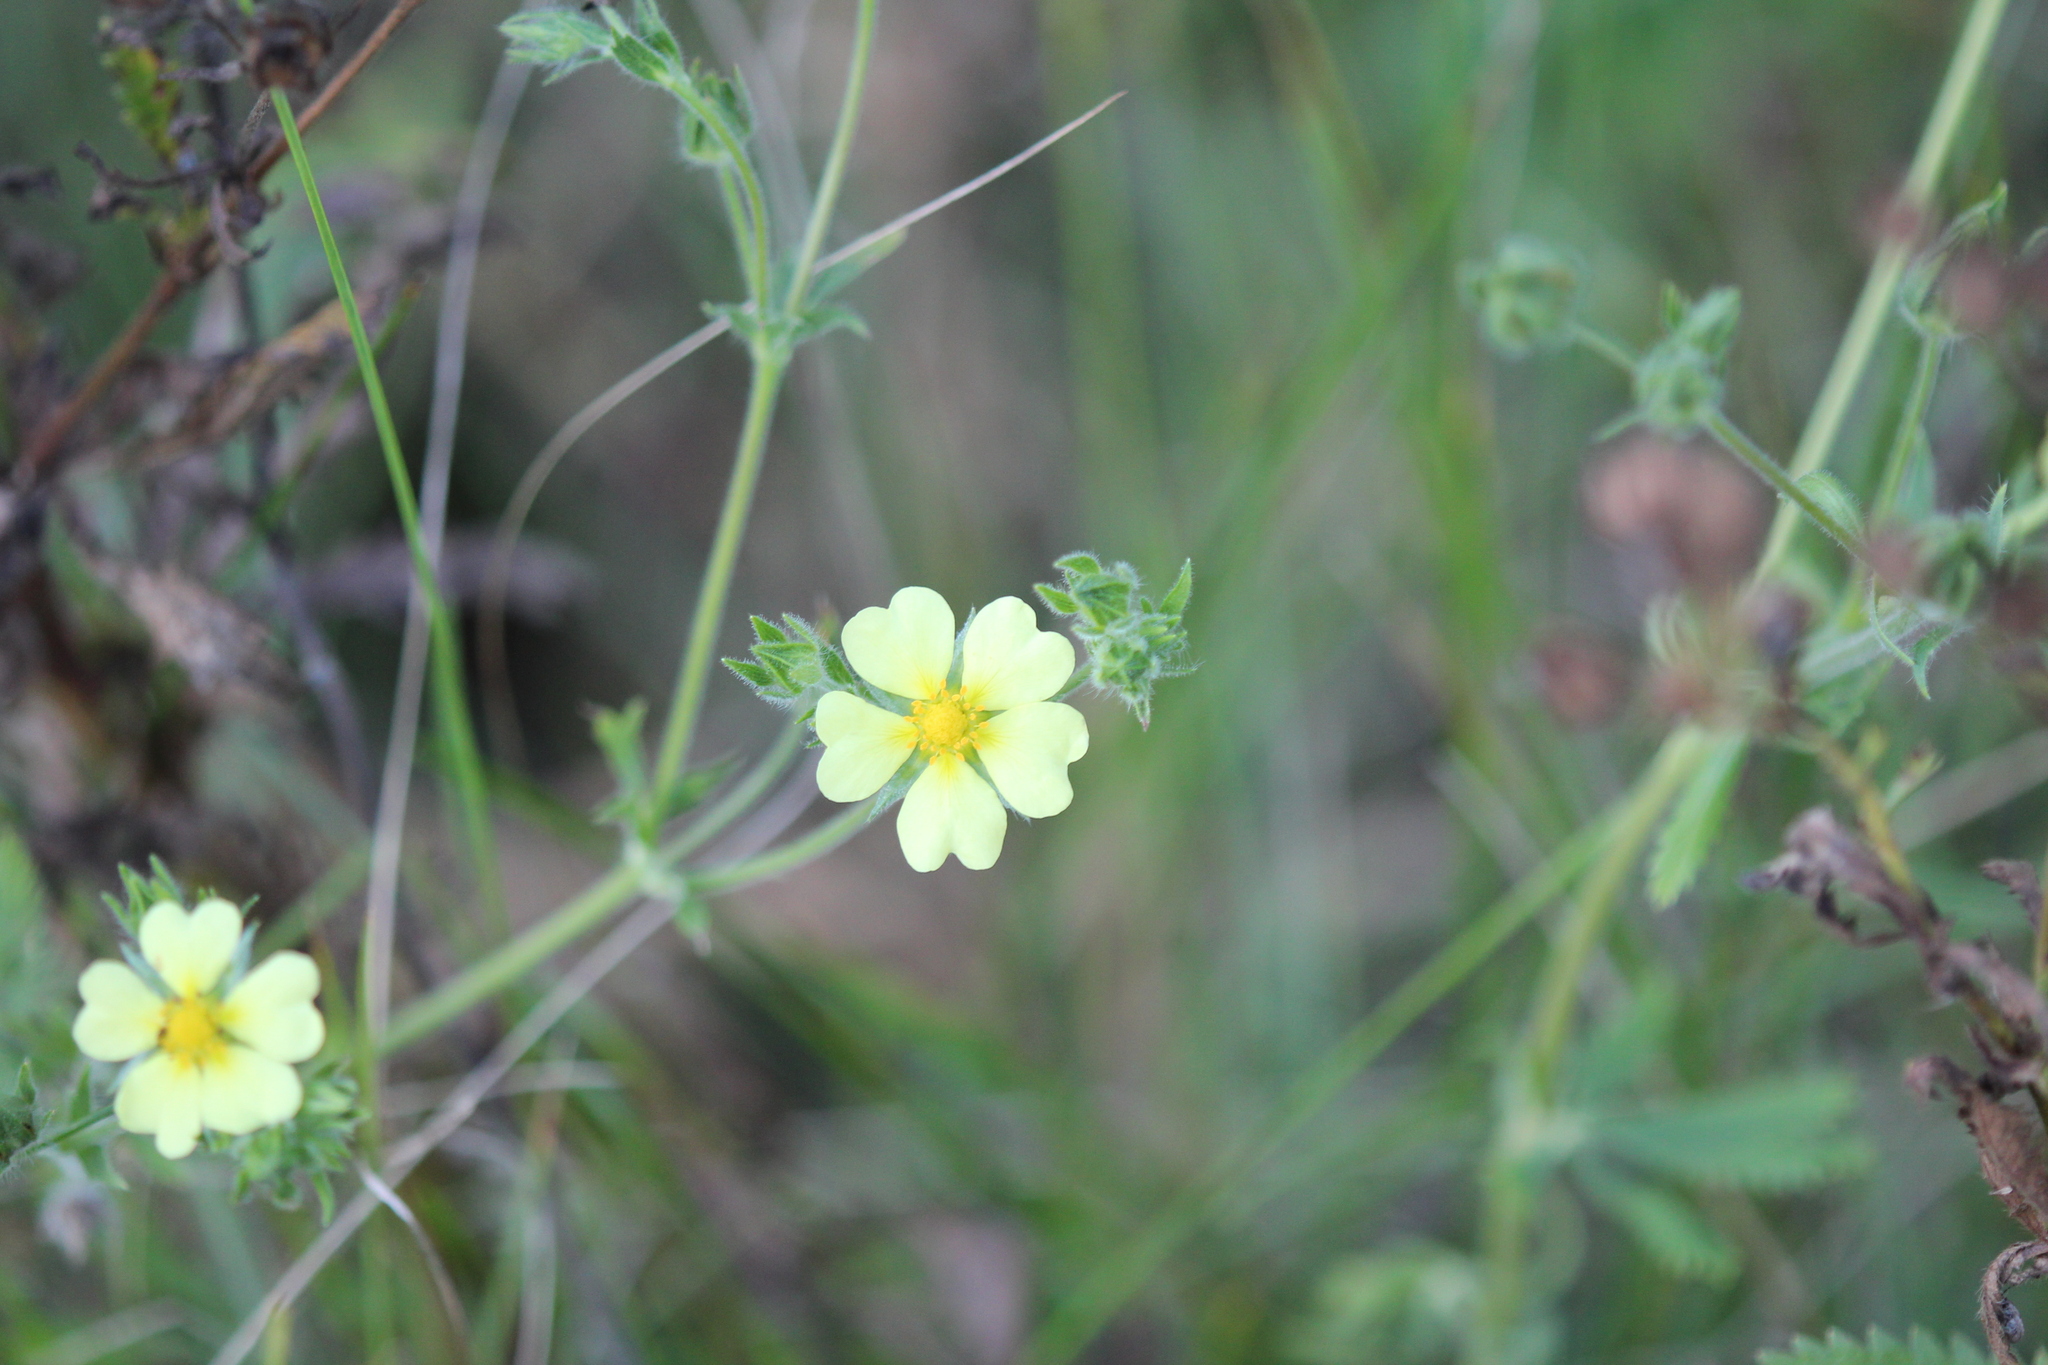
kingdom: Plantae
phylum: Tracheophyta
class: Magnoliopsida
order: Rosales
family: Rosaceae
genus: Potentilla
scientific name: Potentilla recta
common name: Sulphur cinquefoil
